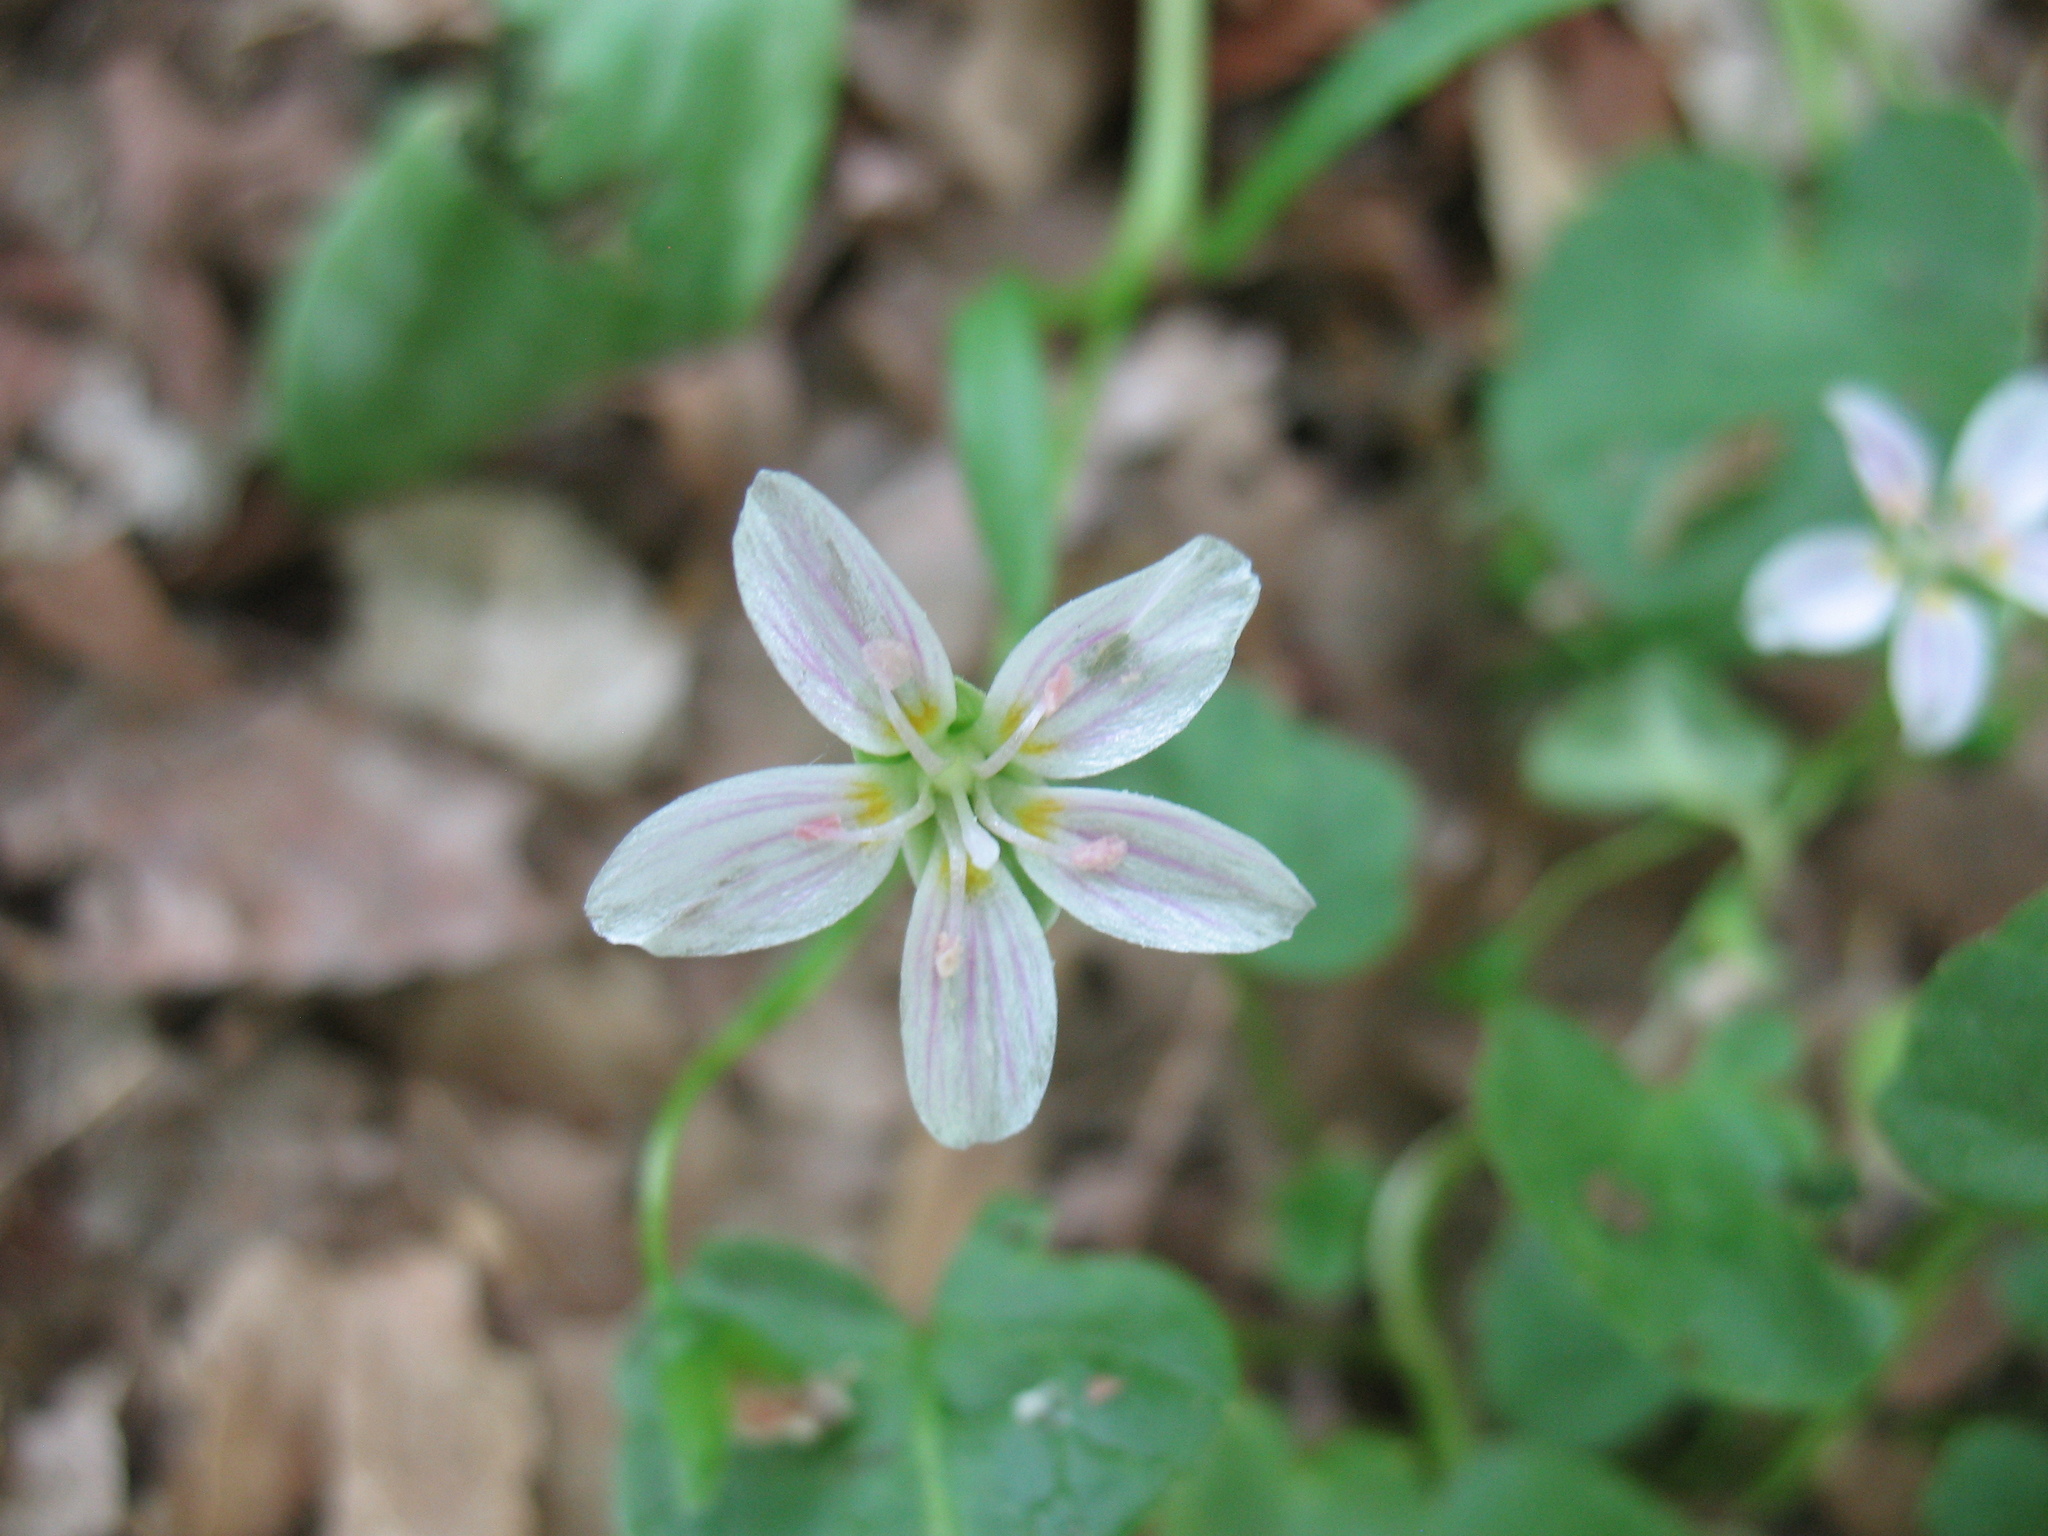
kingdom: Plantae
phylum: Tracheophyta
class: Magnoliopsida
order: Caryophyllales
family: Montiaceae
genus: Claytonia
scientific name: Claytonia virginica
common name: Virginia springbeauty
